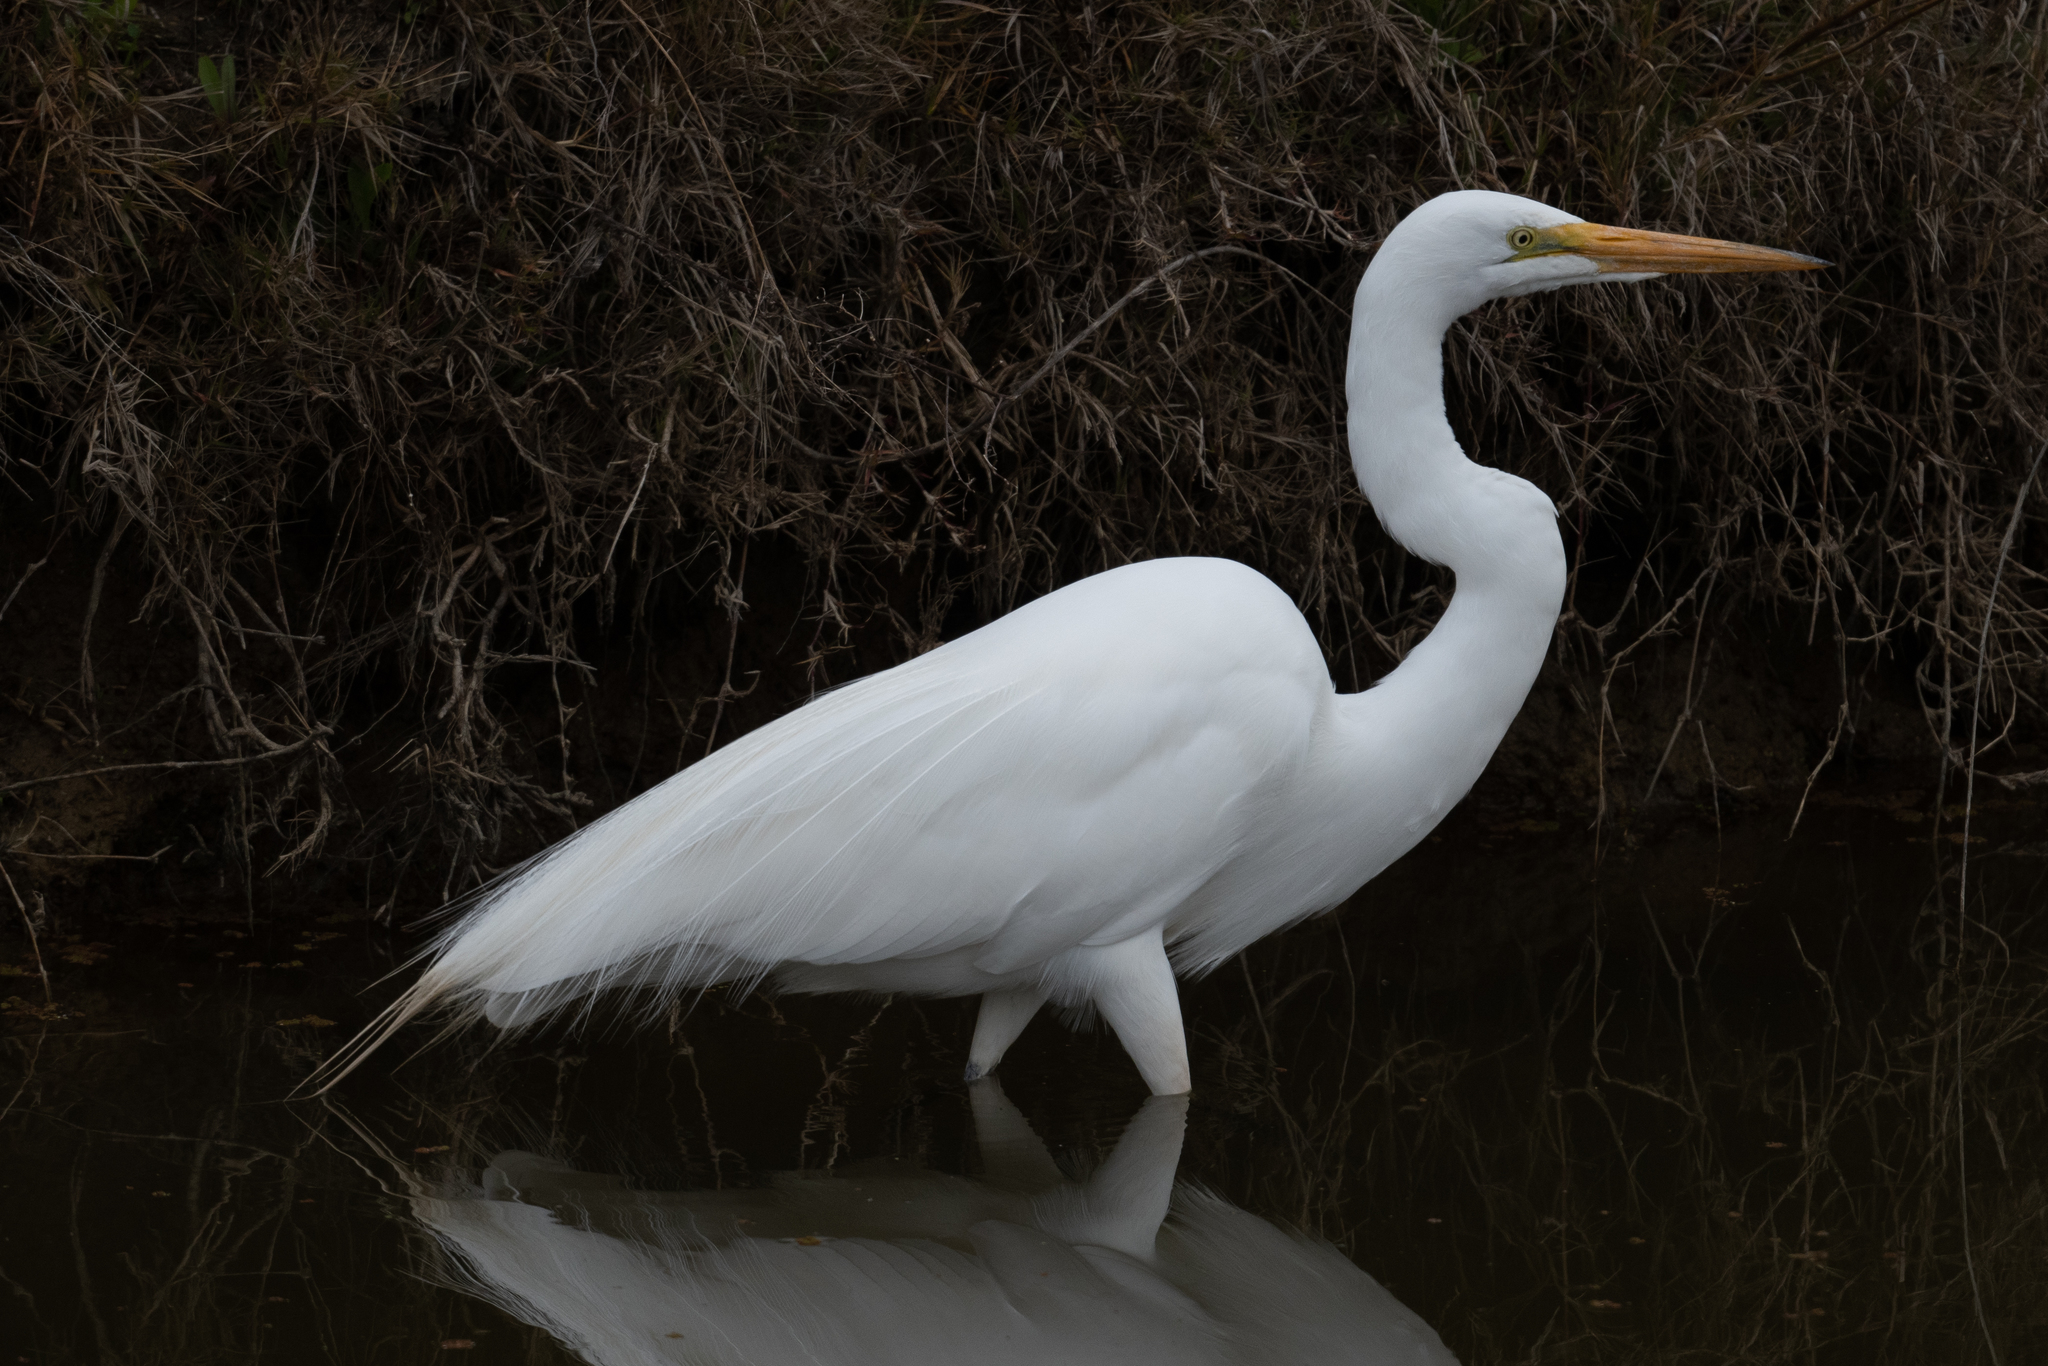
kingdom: Animalia
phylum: Chordata
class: Aves
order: Pelecaniformes
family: Ardeidae
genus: Ardea
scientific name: Ardea alba
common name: Great egret
